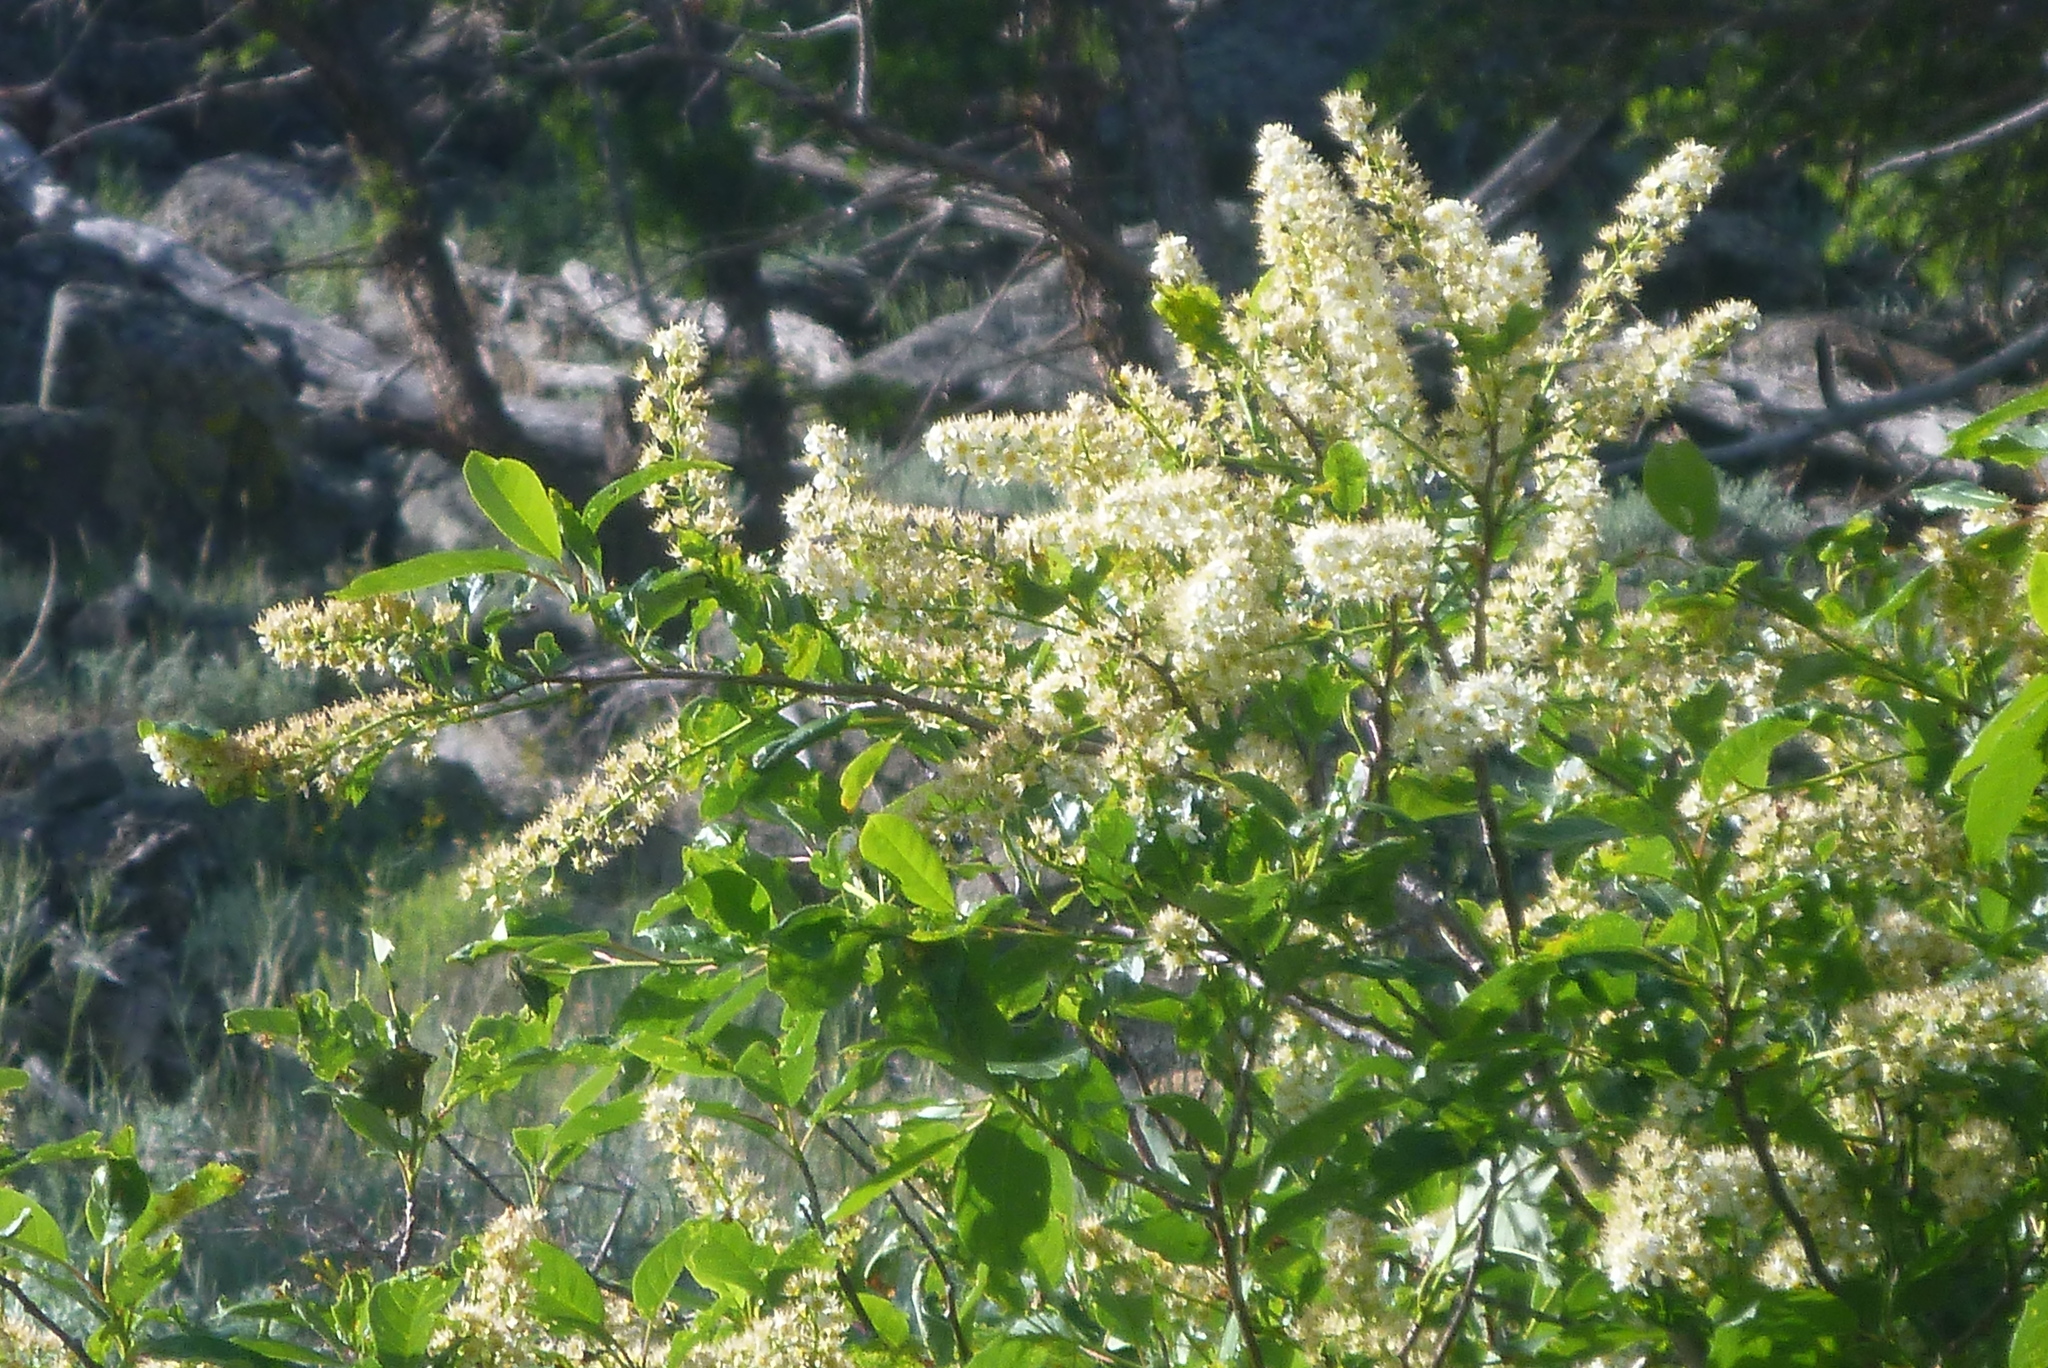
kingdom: Plantae
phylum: Tracheophyta
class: Magnoliopsida
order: Rosales
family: Rosaceae
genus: Prunus
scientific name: Prunus virginiana
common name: Chokecherry
